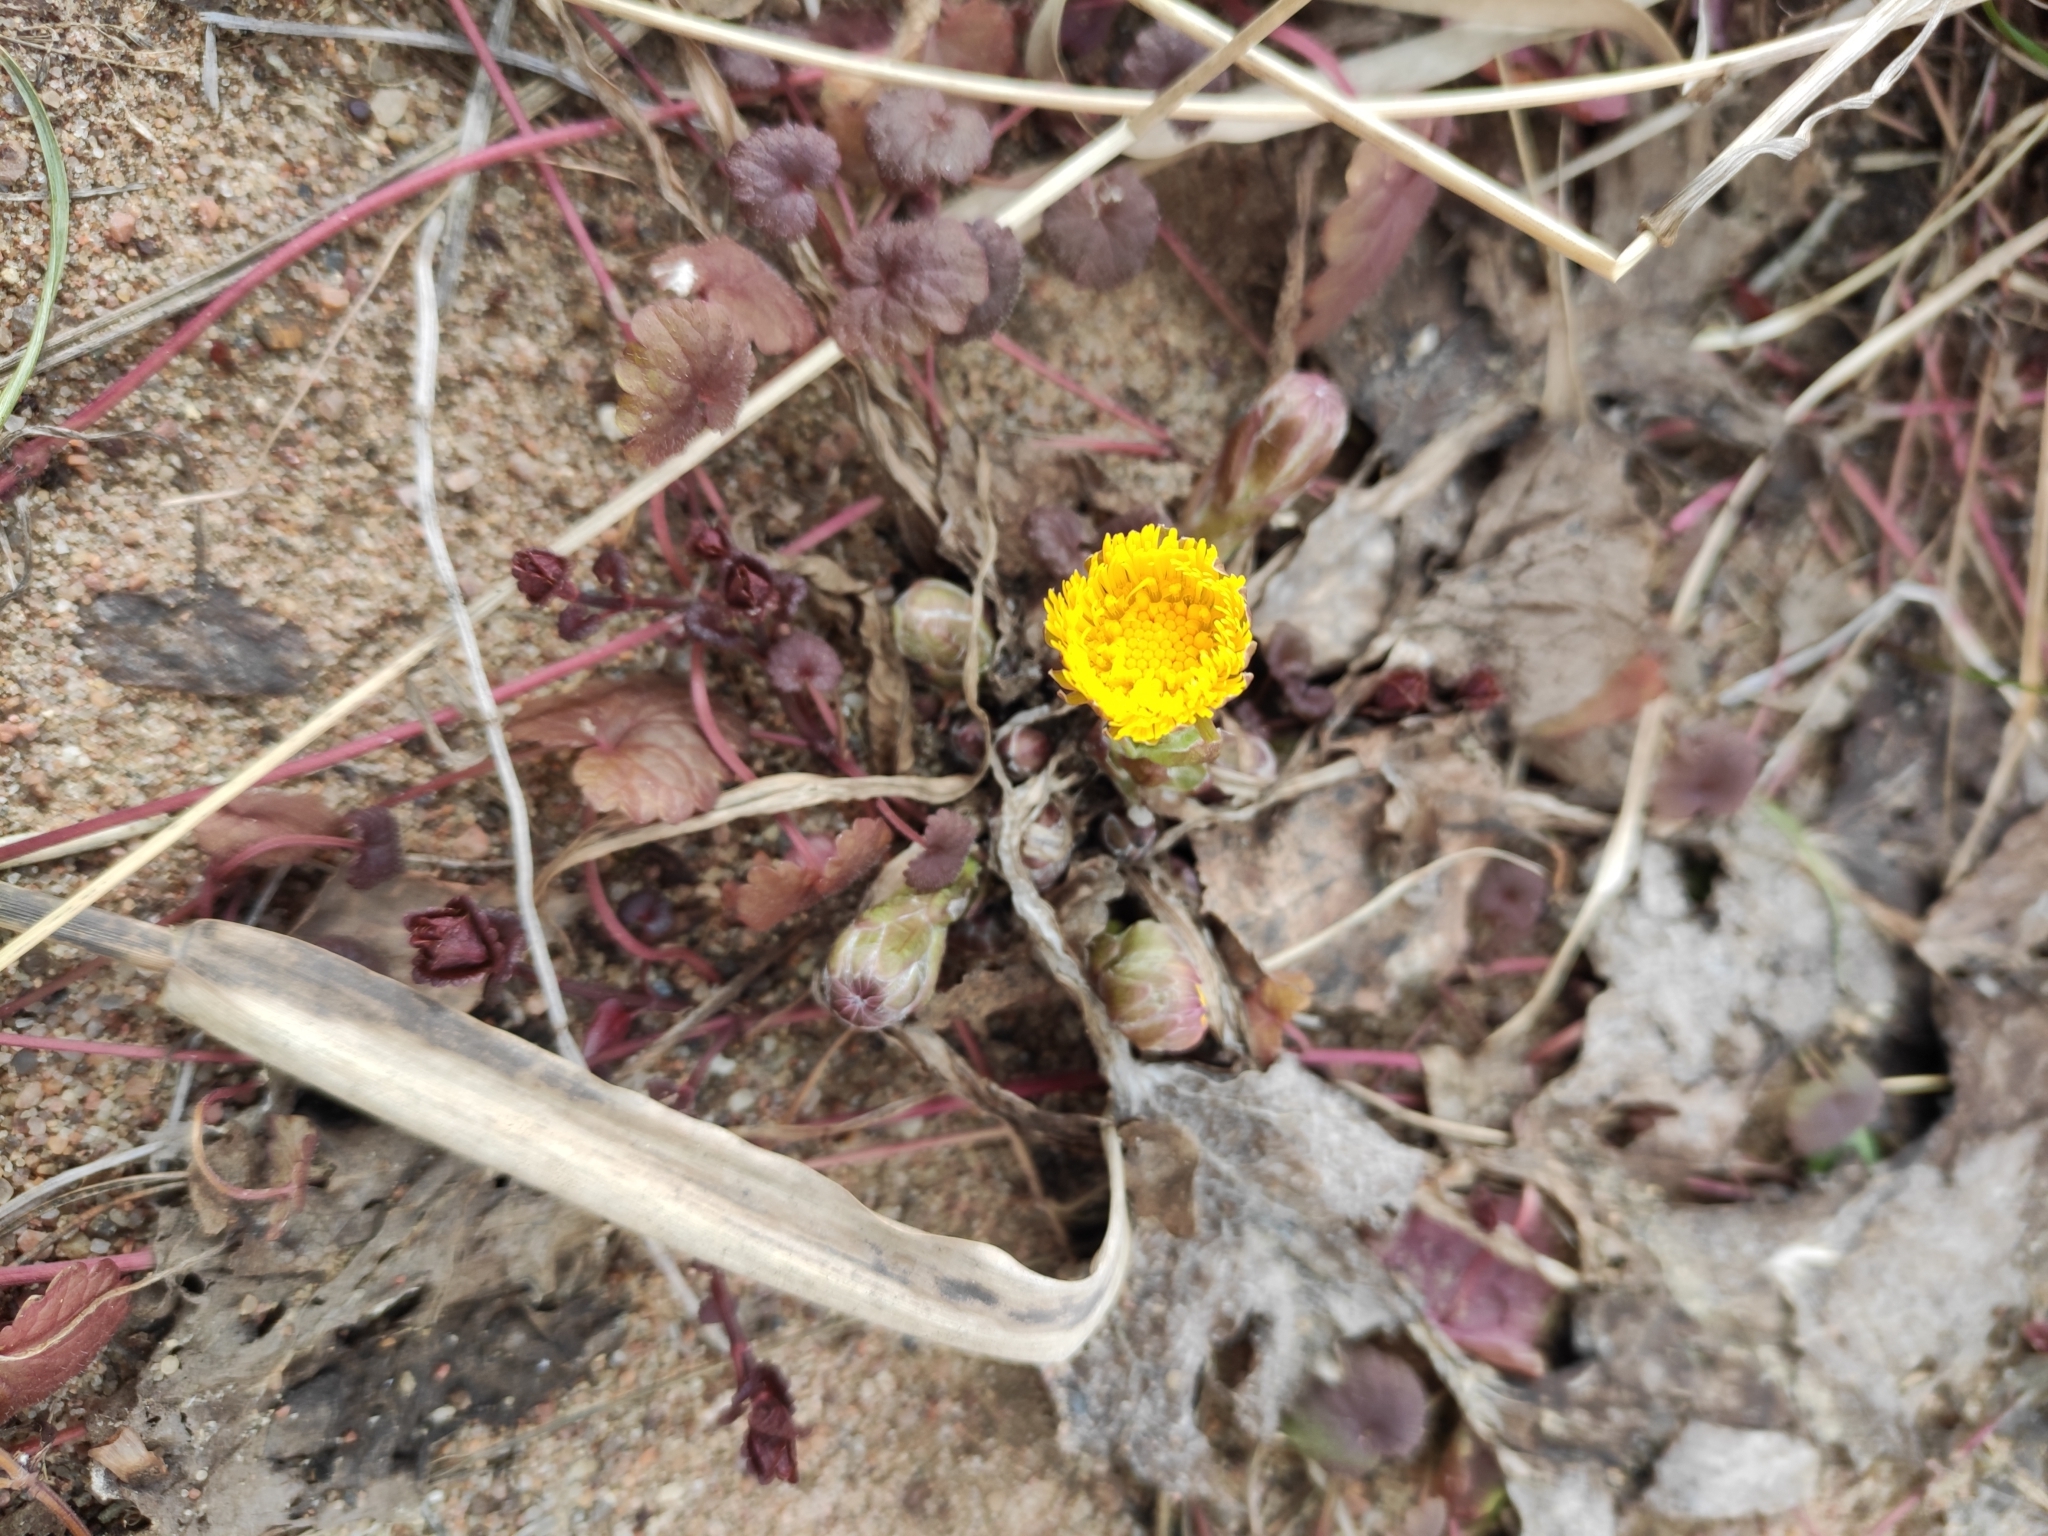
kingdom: Plantae
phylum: Tracheophyta
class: Magnoliopsida
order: Asterales
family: Asteraceae
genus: Tussilago
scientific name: Tussilago farfara
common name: Coltsfoot
